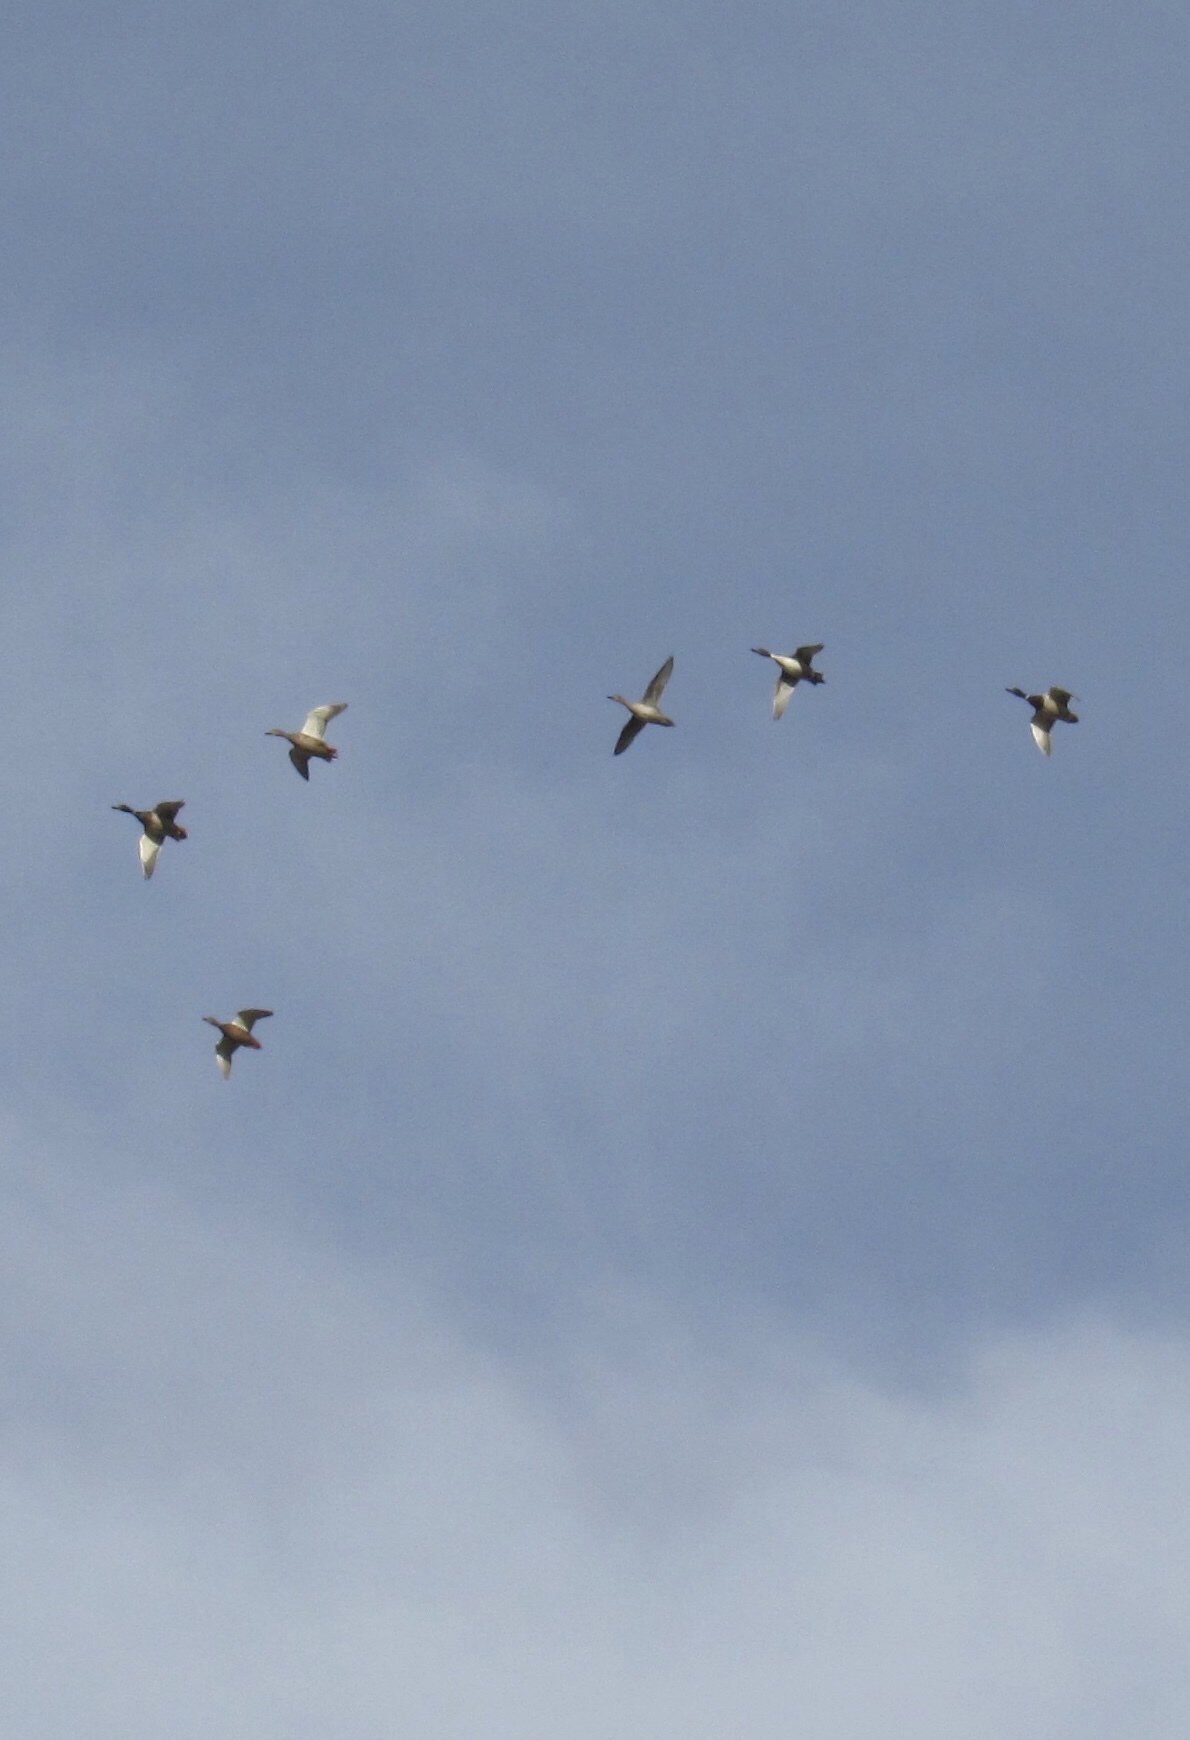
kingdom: Animalia
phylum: Chordata
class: Aves
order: Anseriformes
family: Anatidae
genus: Anas
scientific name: Anas acuta
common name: Northern pintail
